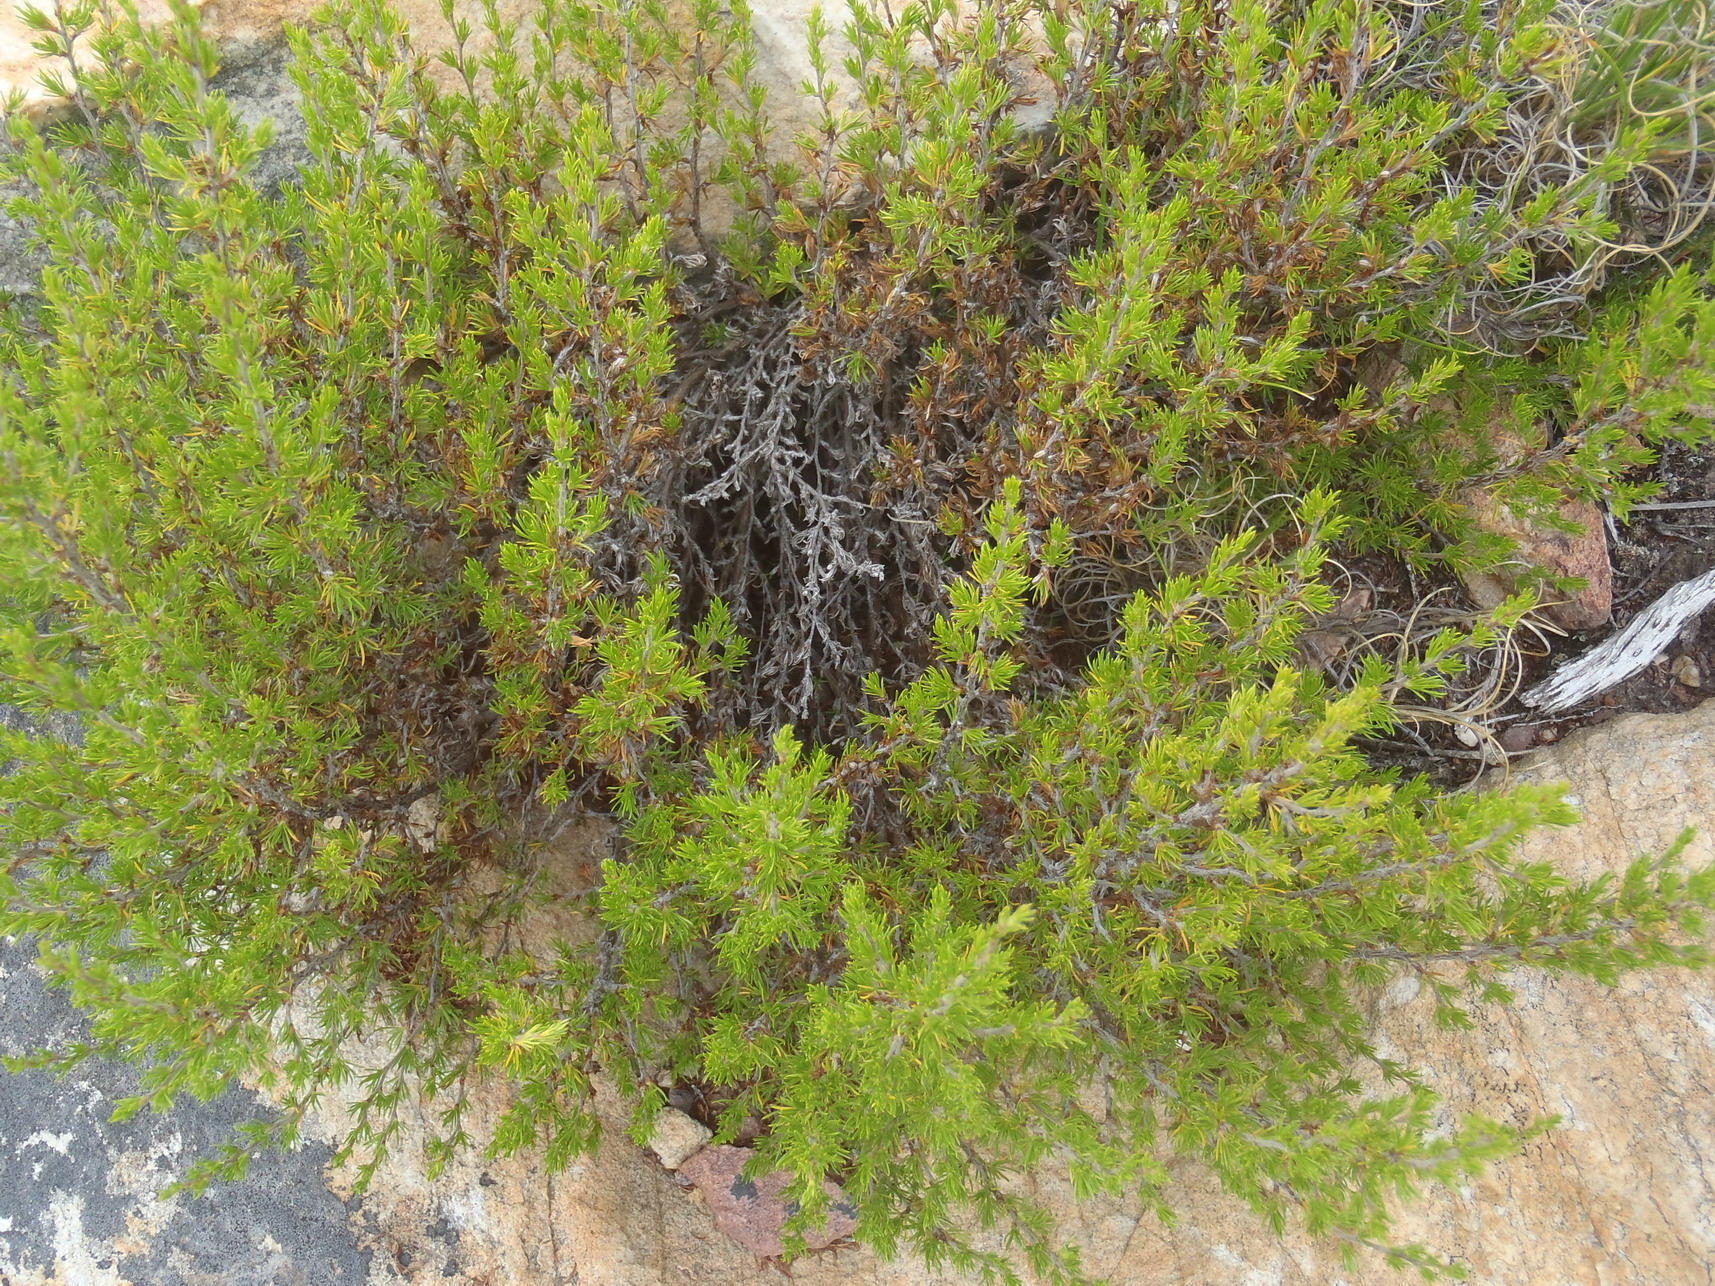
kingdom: Plantae
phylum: Tracheophyta
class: Magnoliopsida
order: Rosales
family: Rosaceae
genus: Cliffortia
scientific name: Cliffortia tuberculata
